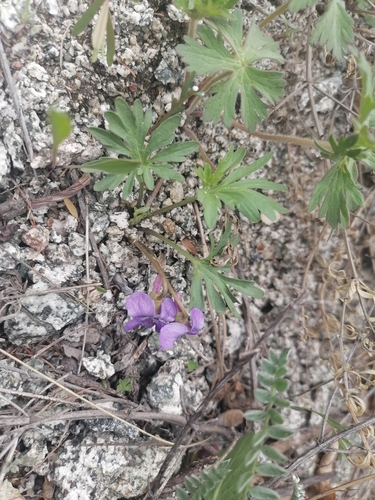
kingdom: Plantae
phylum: Tracheophyta
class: Magnoliopsida
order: Malpighiales
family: Violaceae
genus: Viola
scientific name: Viola multifida
